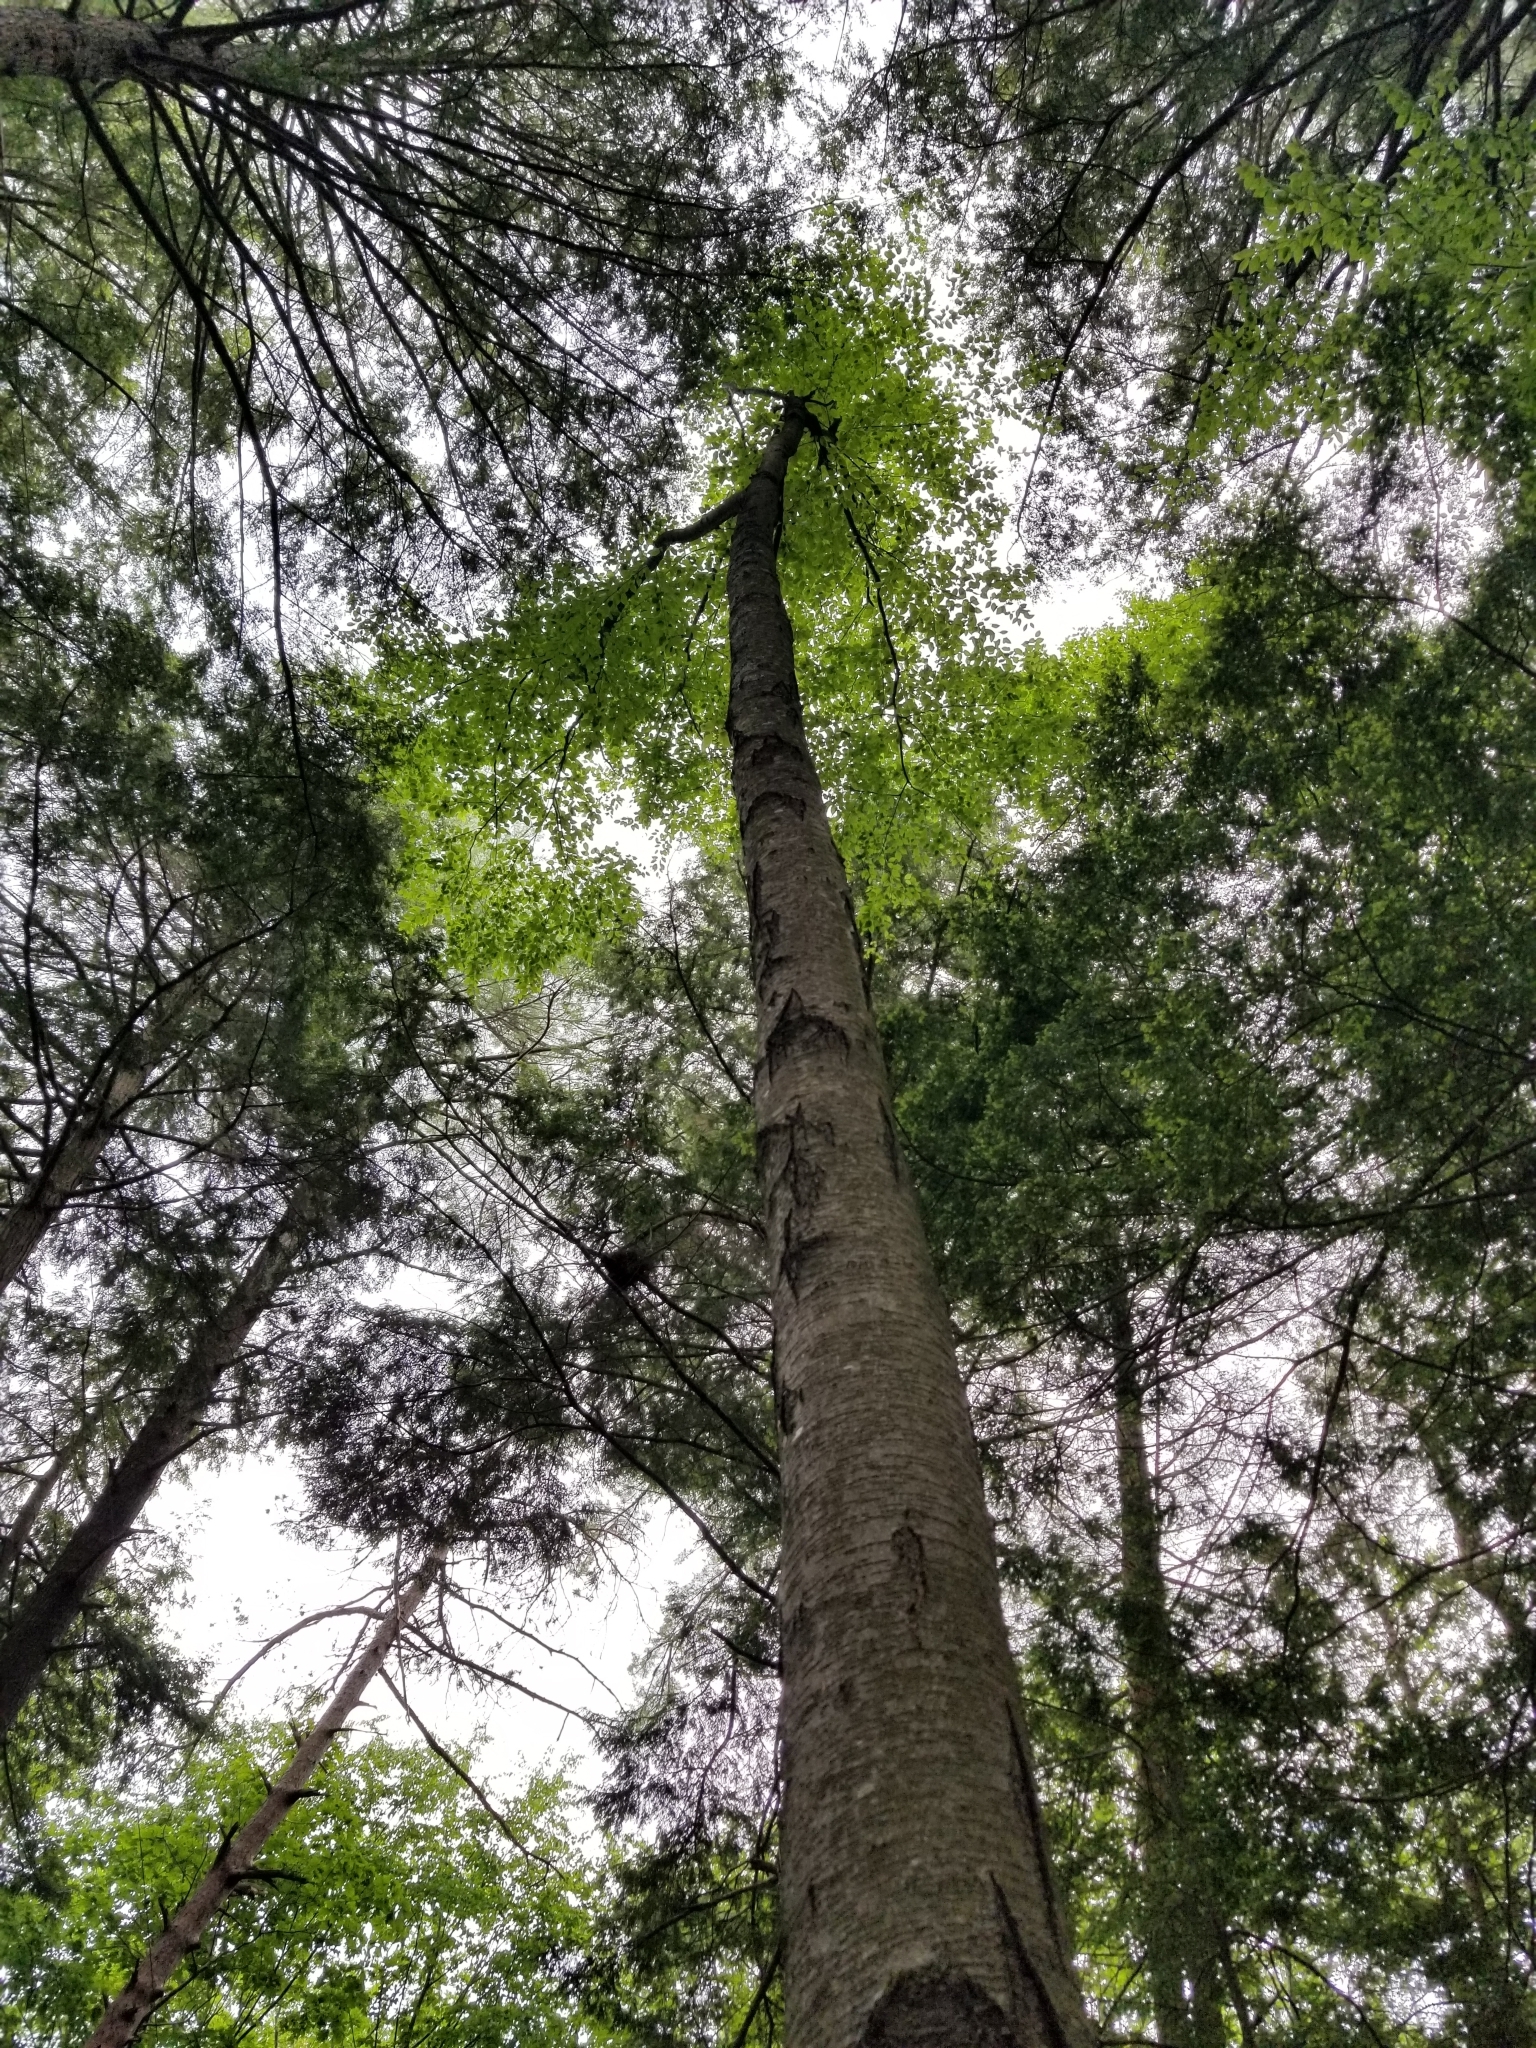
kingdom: Plantae
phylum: Tracheophyta
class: Magnoliopsida
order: Fagales
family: Betulaceae
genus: Betula
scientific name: Betula lenta
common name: Black birch
